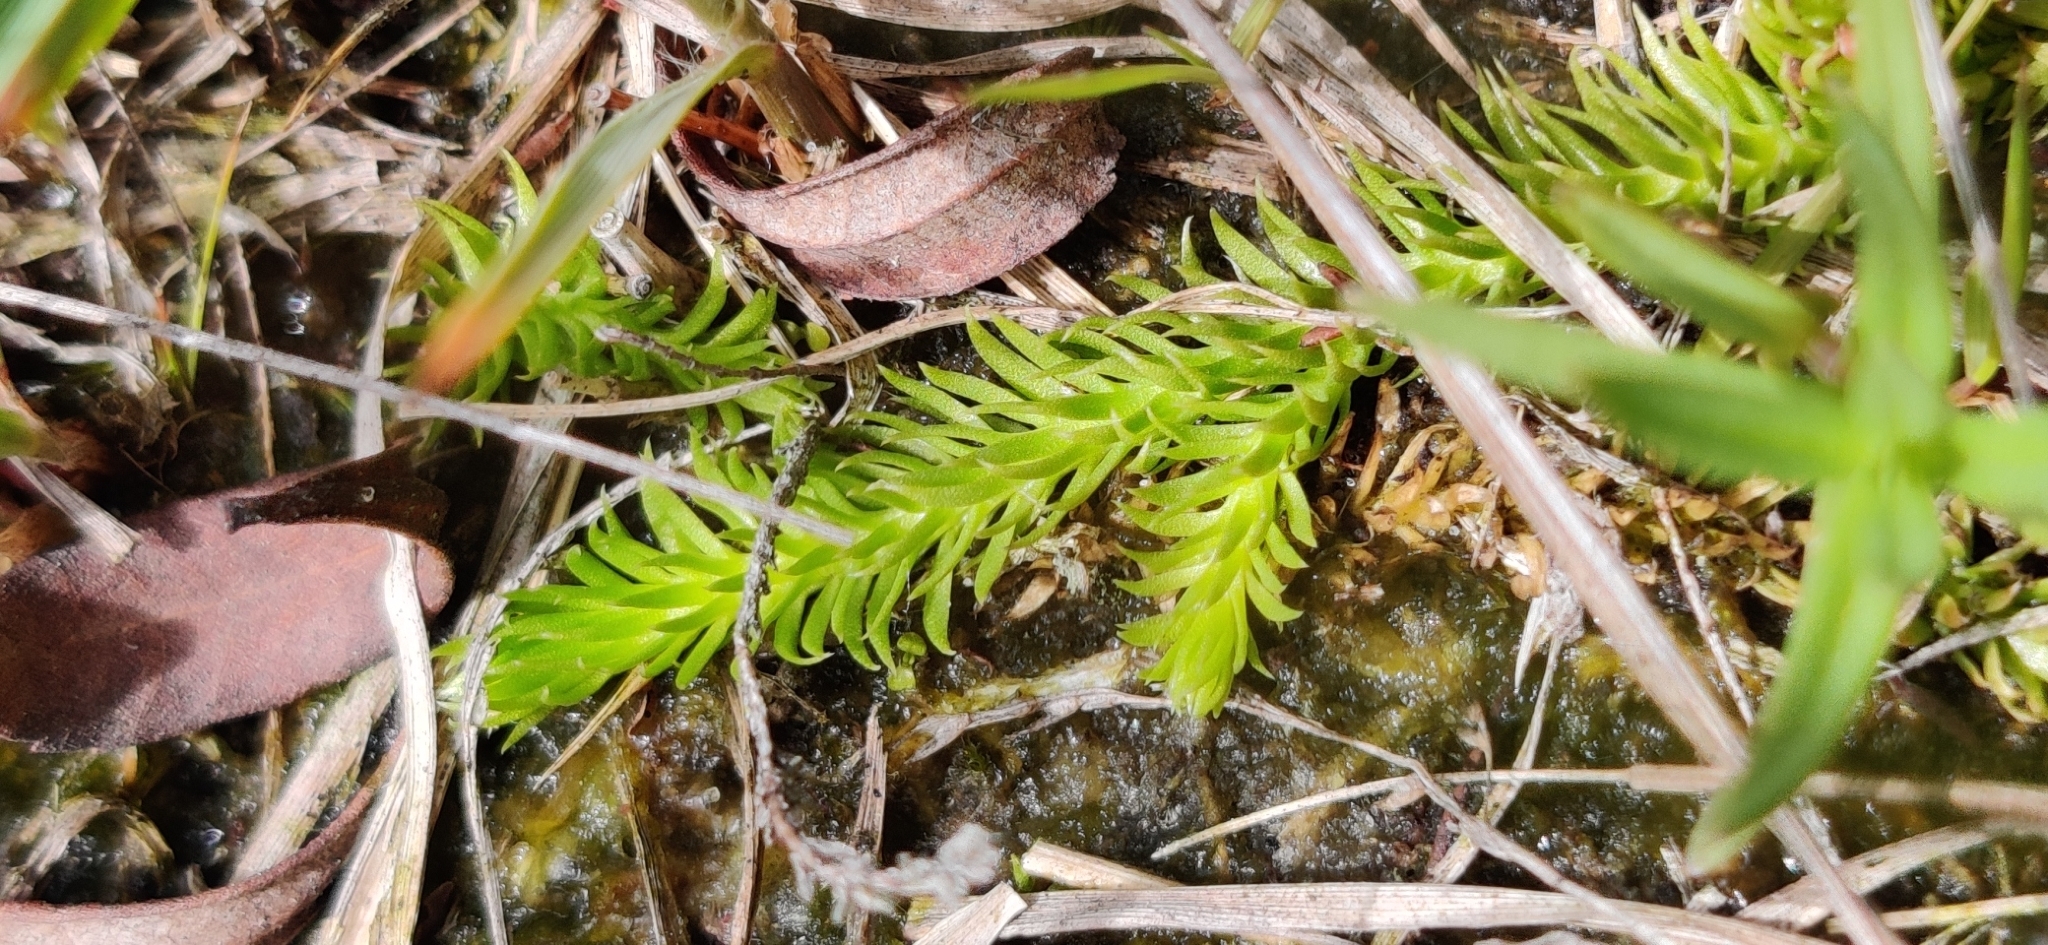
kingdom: Plantae
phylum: Tracheophyta
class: Lycopodiopsida
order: Lycopodiales
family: Lycopodiaceae
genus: Lycopodiella
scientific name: Lycopodiella inundata
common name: Marsh clubmoss
